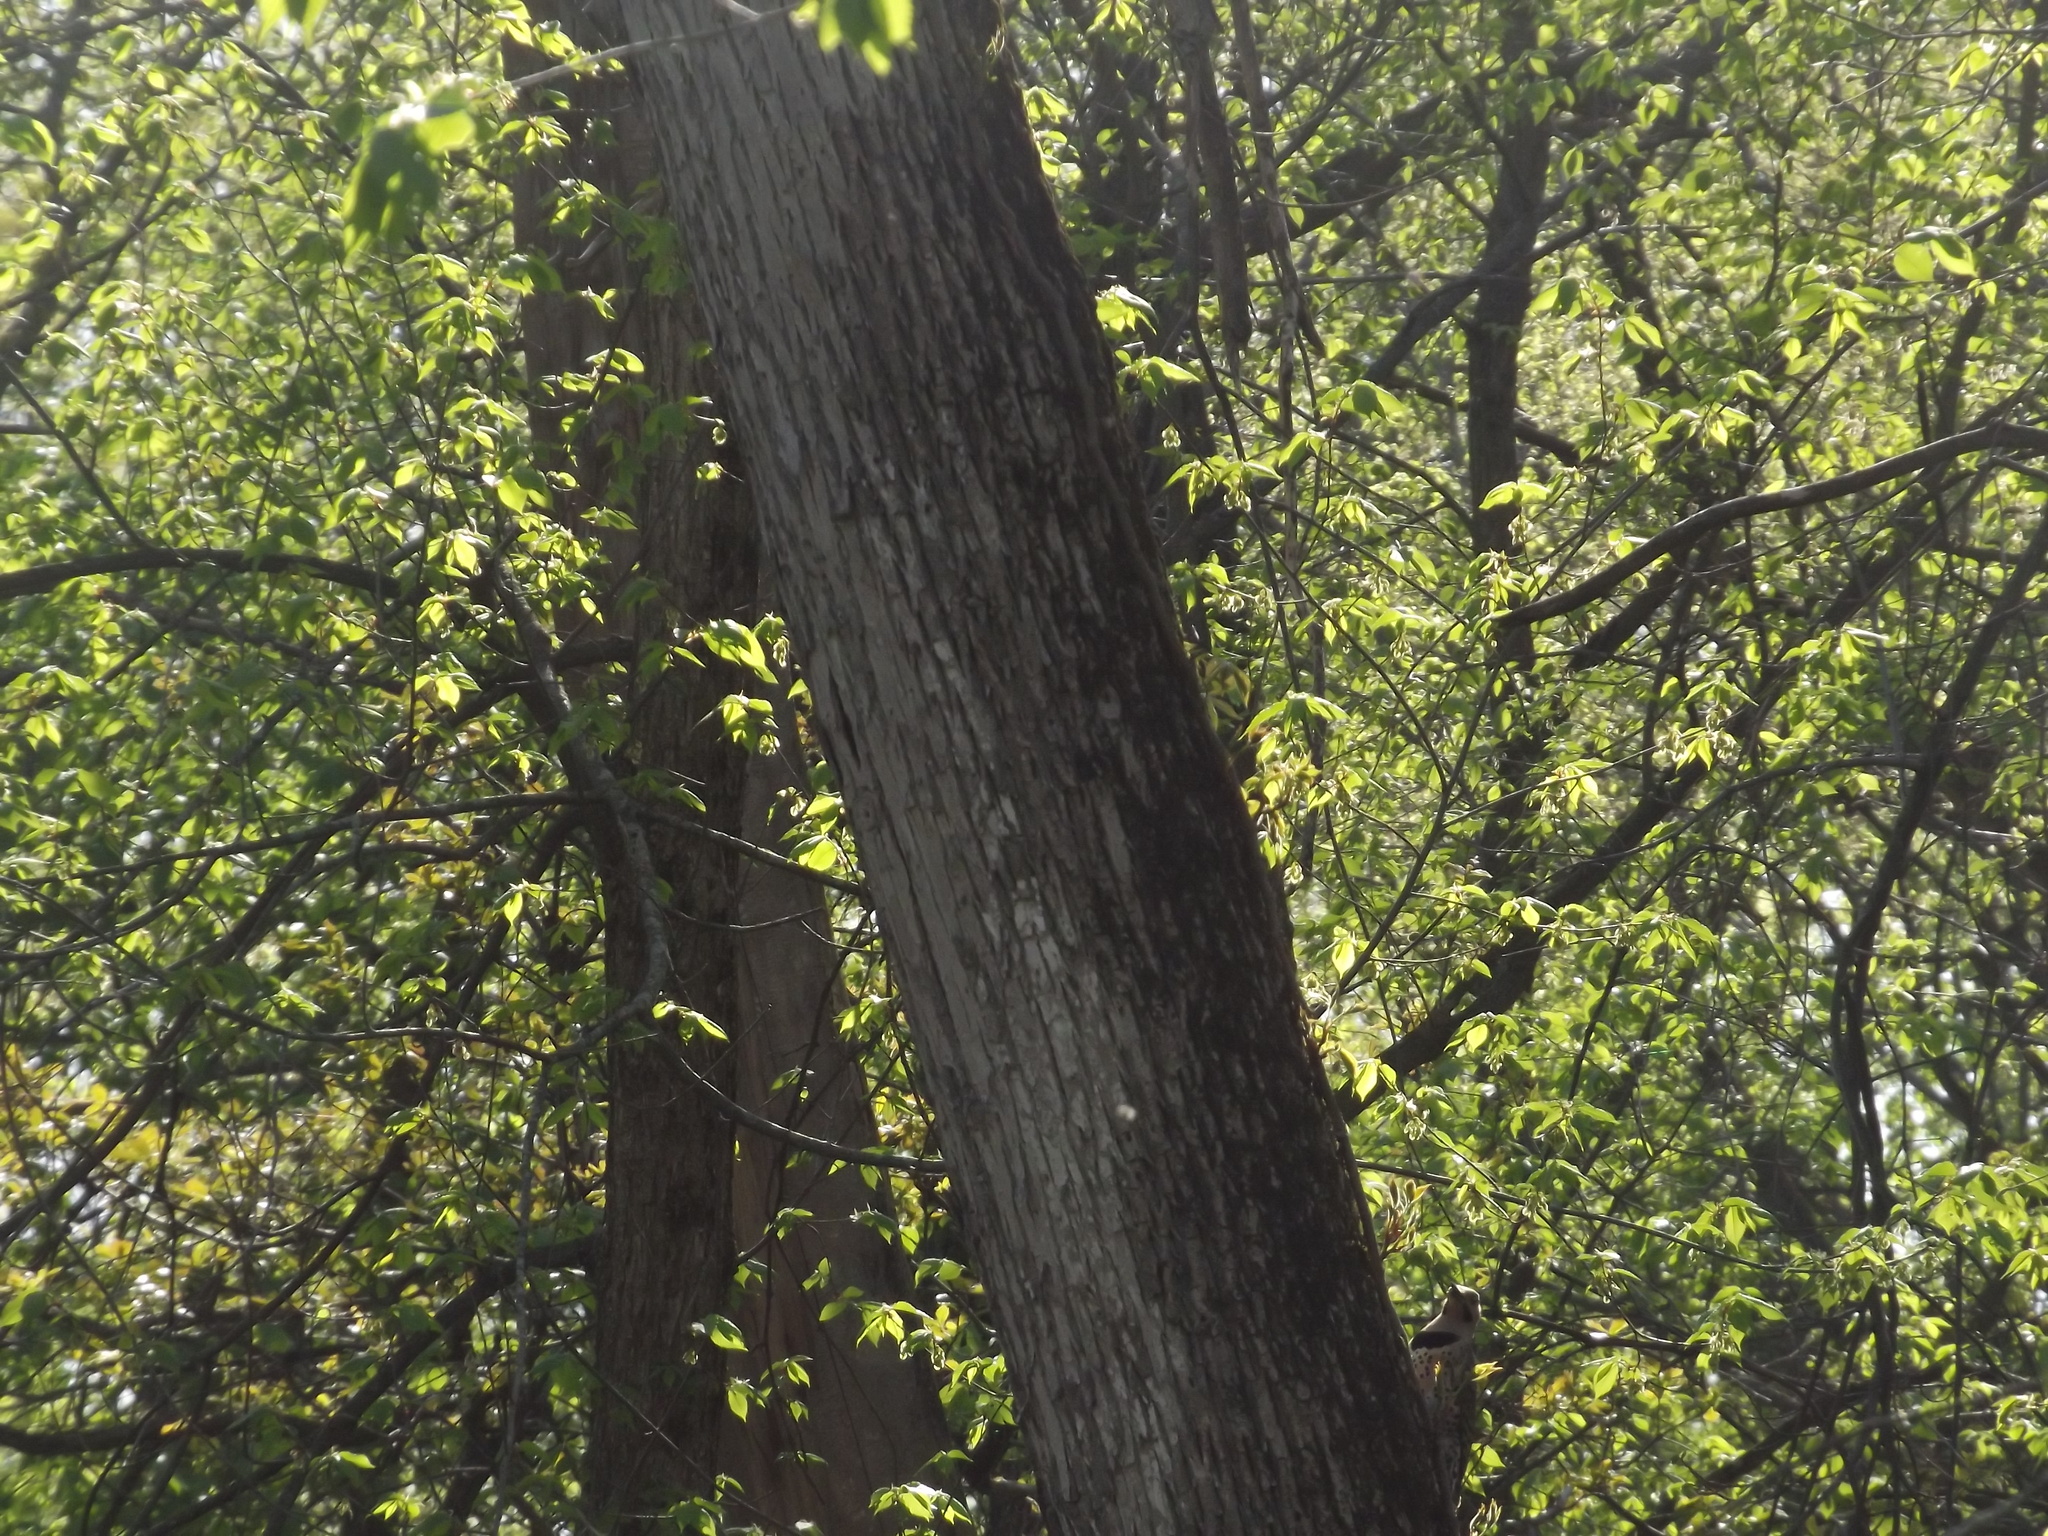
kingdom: Animalia
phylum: Chordata
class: Aves
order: Piciformes
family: Picidae
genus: Colaptes
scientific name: Colaptes auratus
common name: Northern flicker
